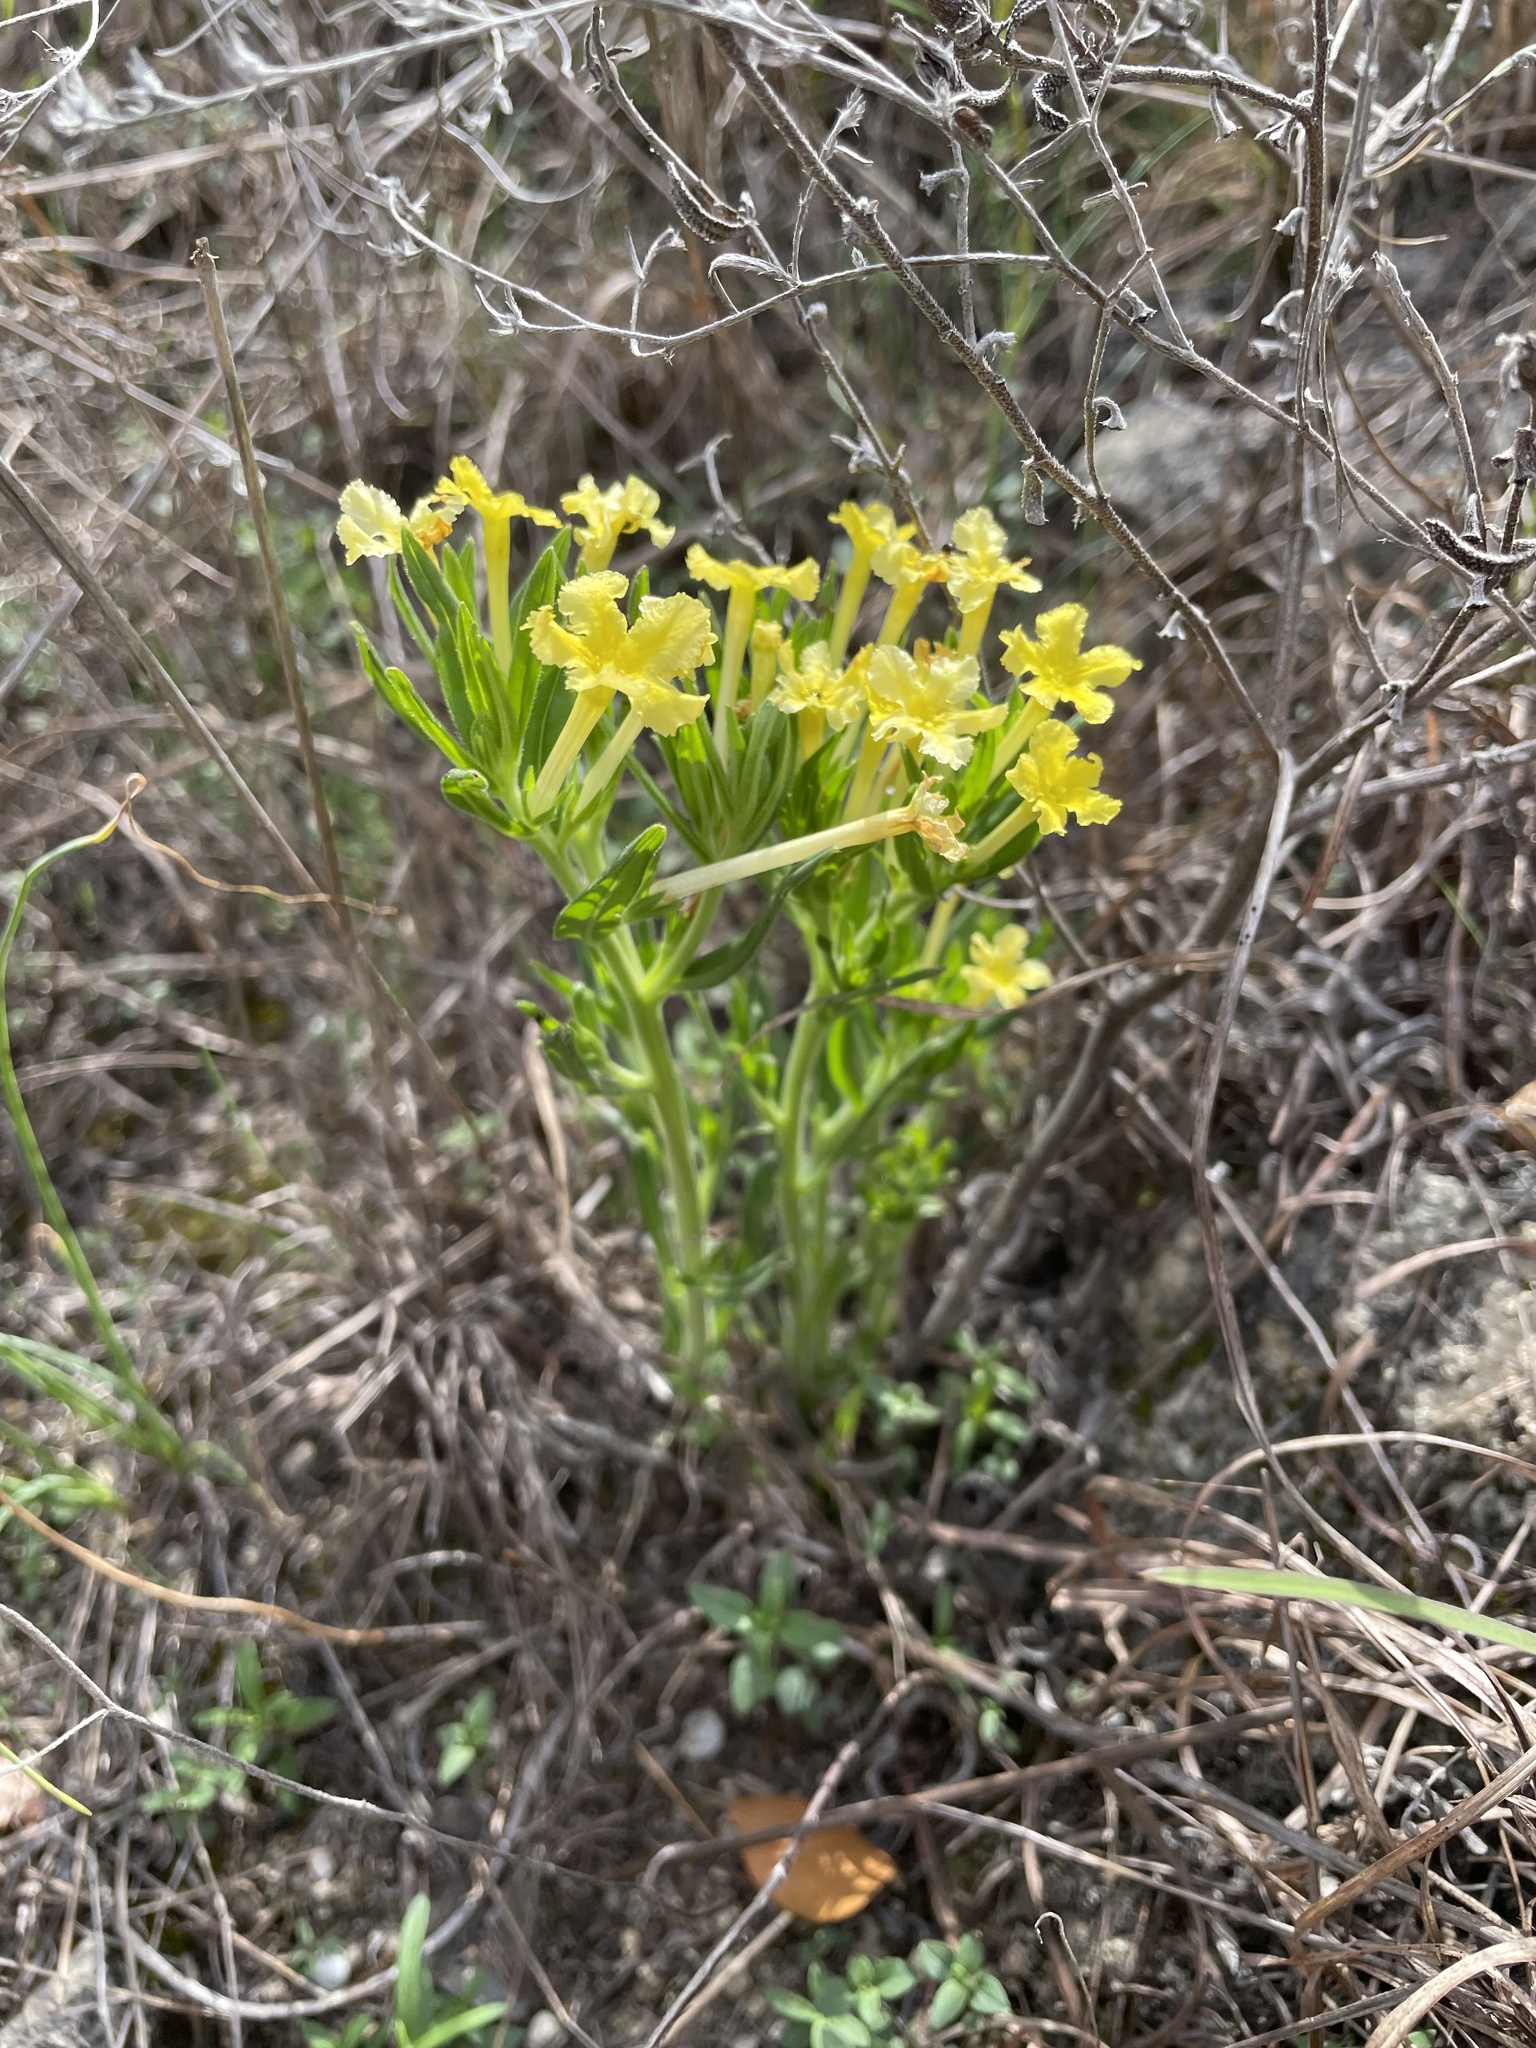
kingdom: Plantae
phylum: Tracheophyta
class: Magnoliopsida
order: Boraginales
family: Boraginaceae
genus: Lithospermum
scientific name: Lithospermum incisum
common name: Fringed gromwell
